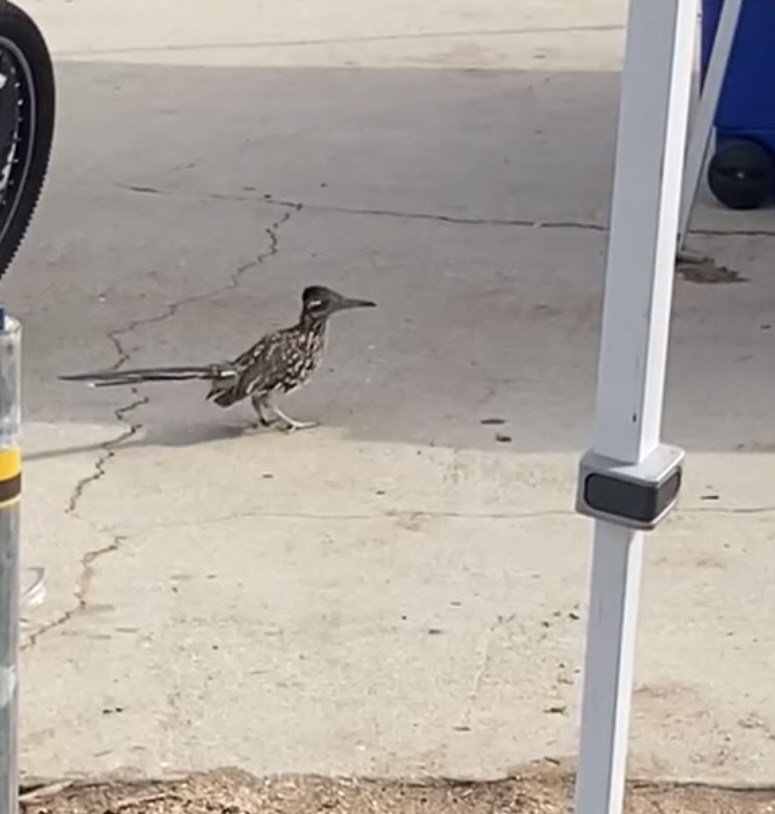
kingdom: Animalia
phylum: Chordata
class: Aves
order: Cuculiformes
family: Cuculidae
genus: Geococcyx
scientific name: Geococcyx californianus
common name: Greater roadrunner
